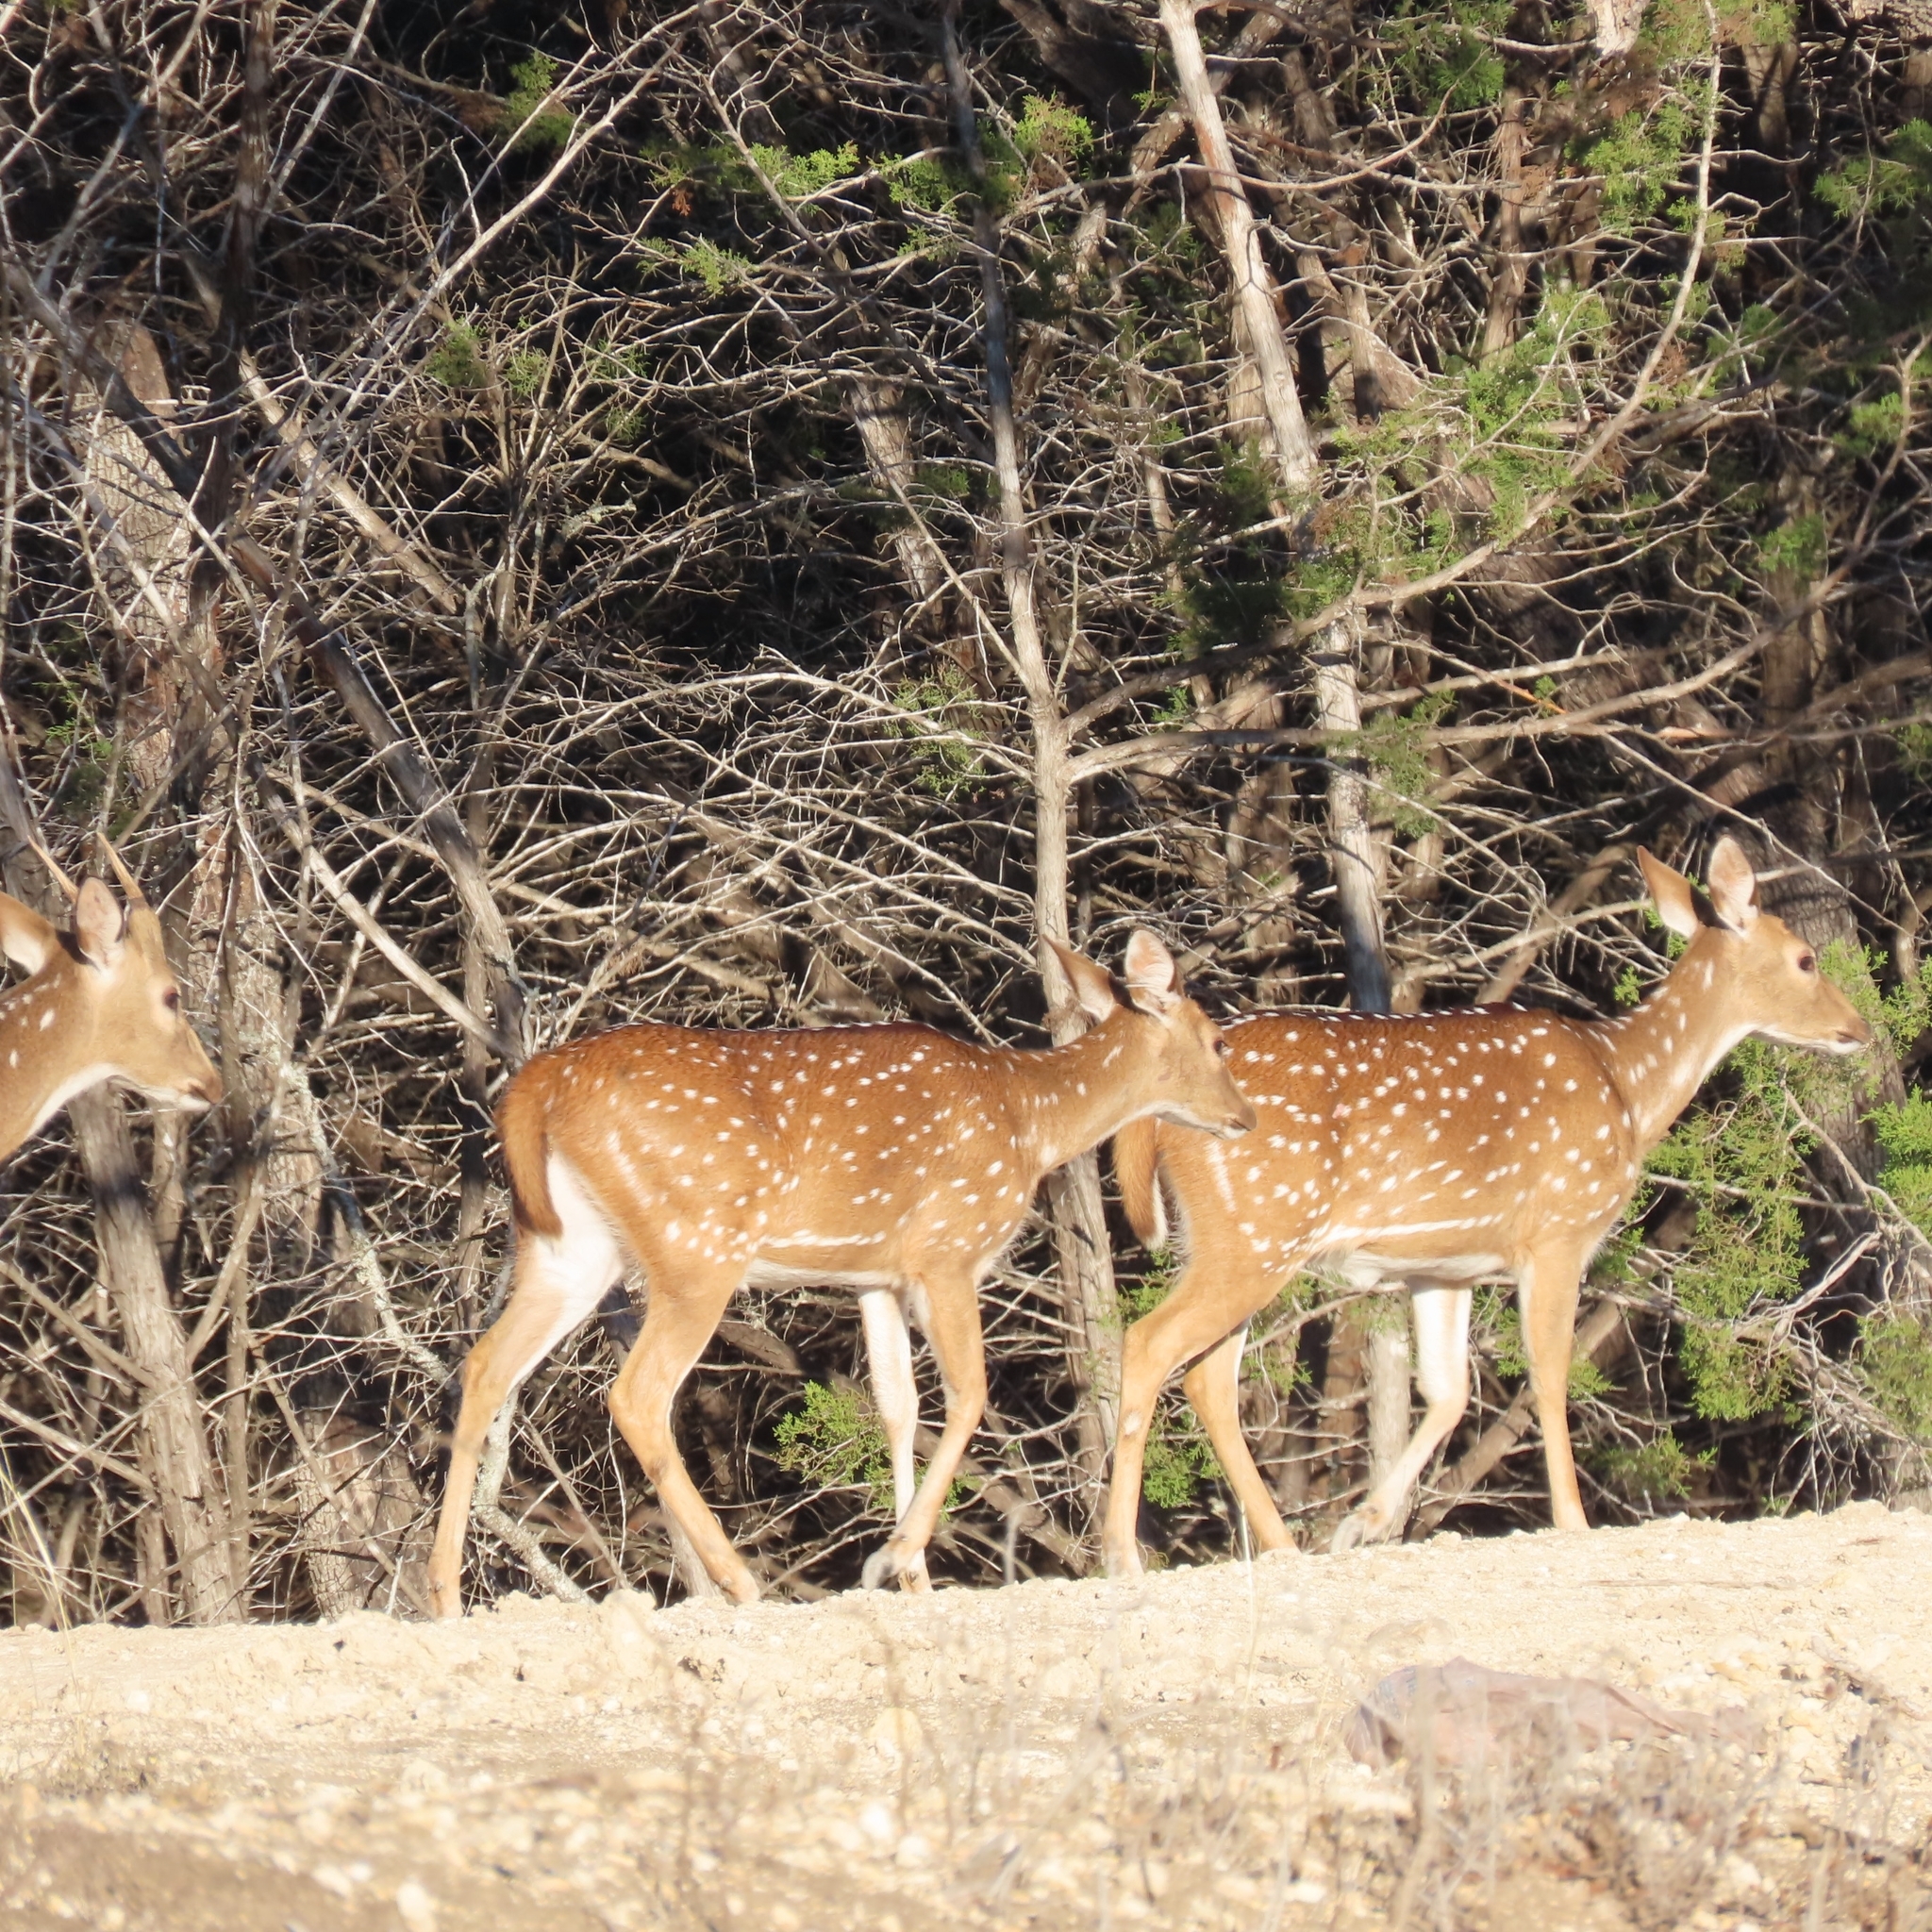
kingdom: Animalia
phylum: Chordata
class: Mammalia
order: Artiodactyla
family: Cervidae
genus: Axis
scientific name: Axis axis
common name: Chital
